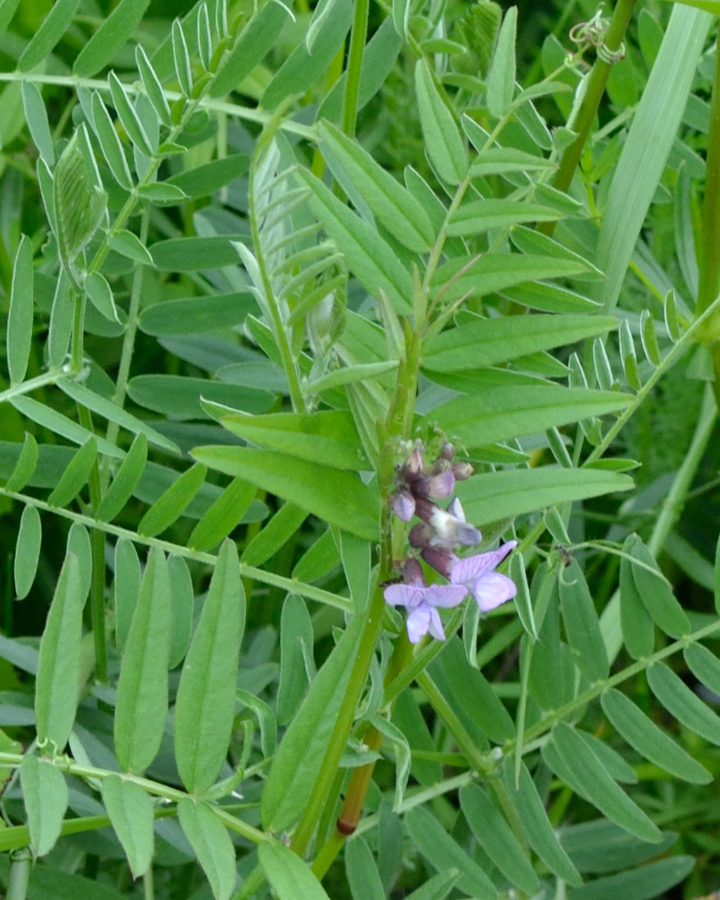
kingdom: Plantae
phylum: Tracheophyta
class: Magnoliopsida
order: Fabales
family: Fabaceae
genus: Vicia
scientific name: Vicia sepium
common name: Bush vetch
